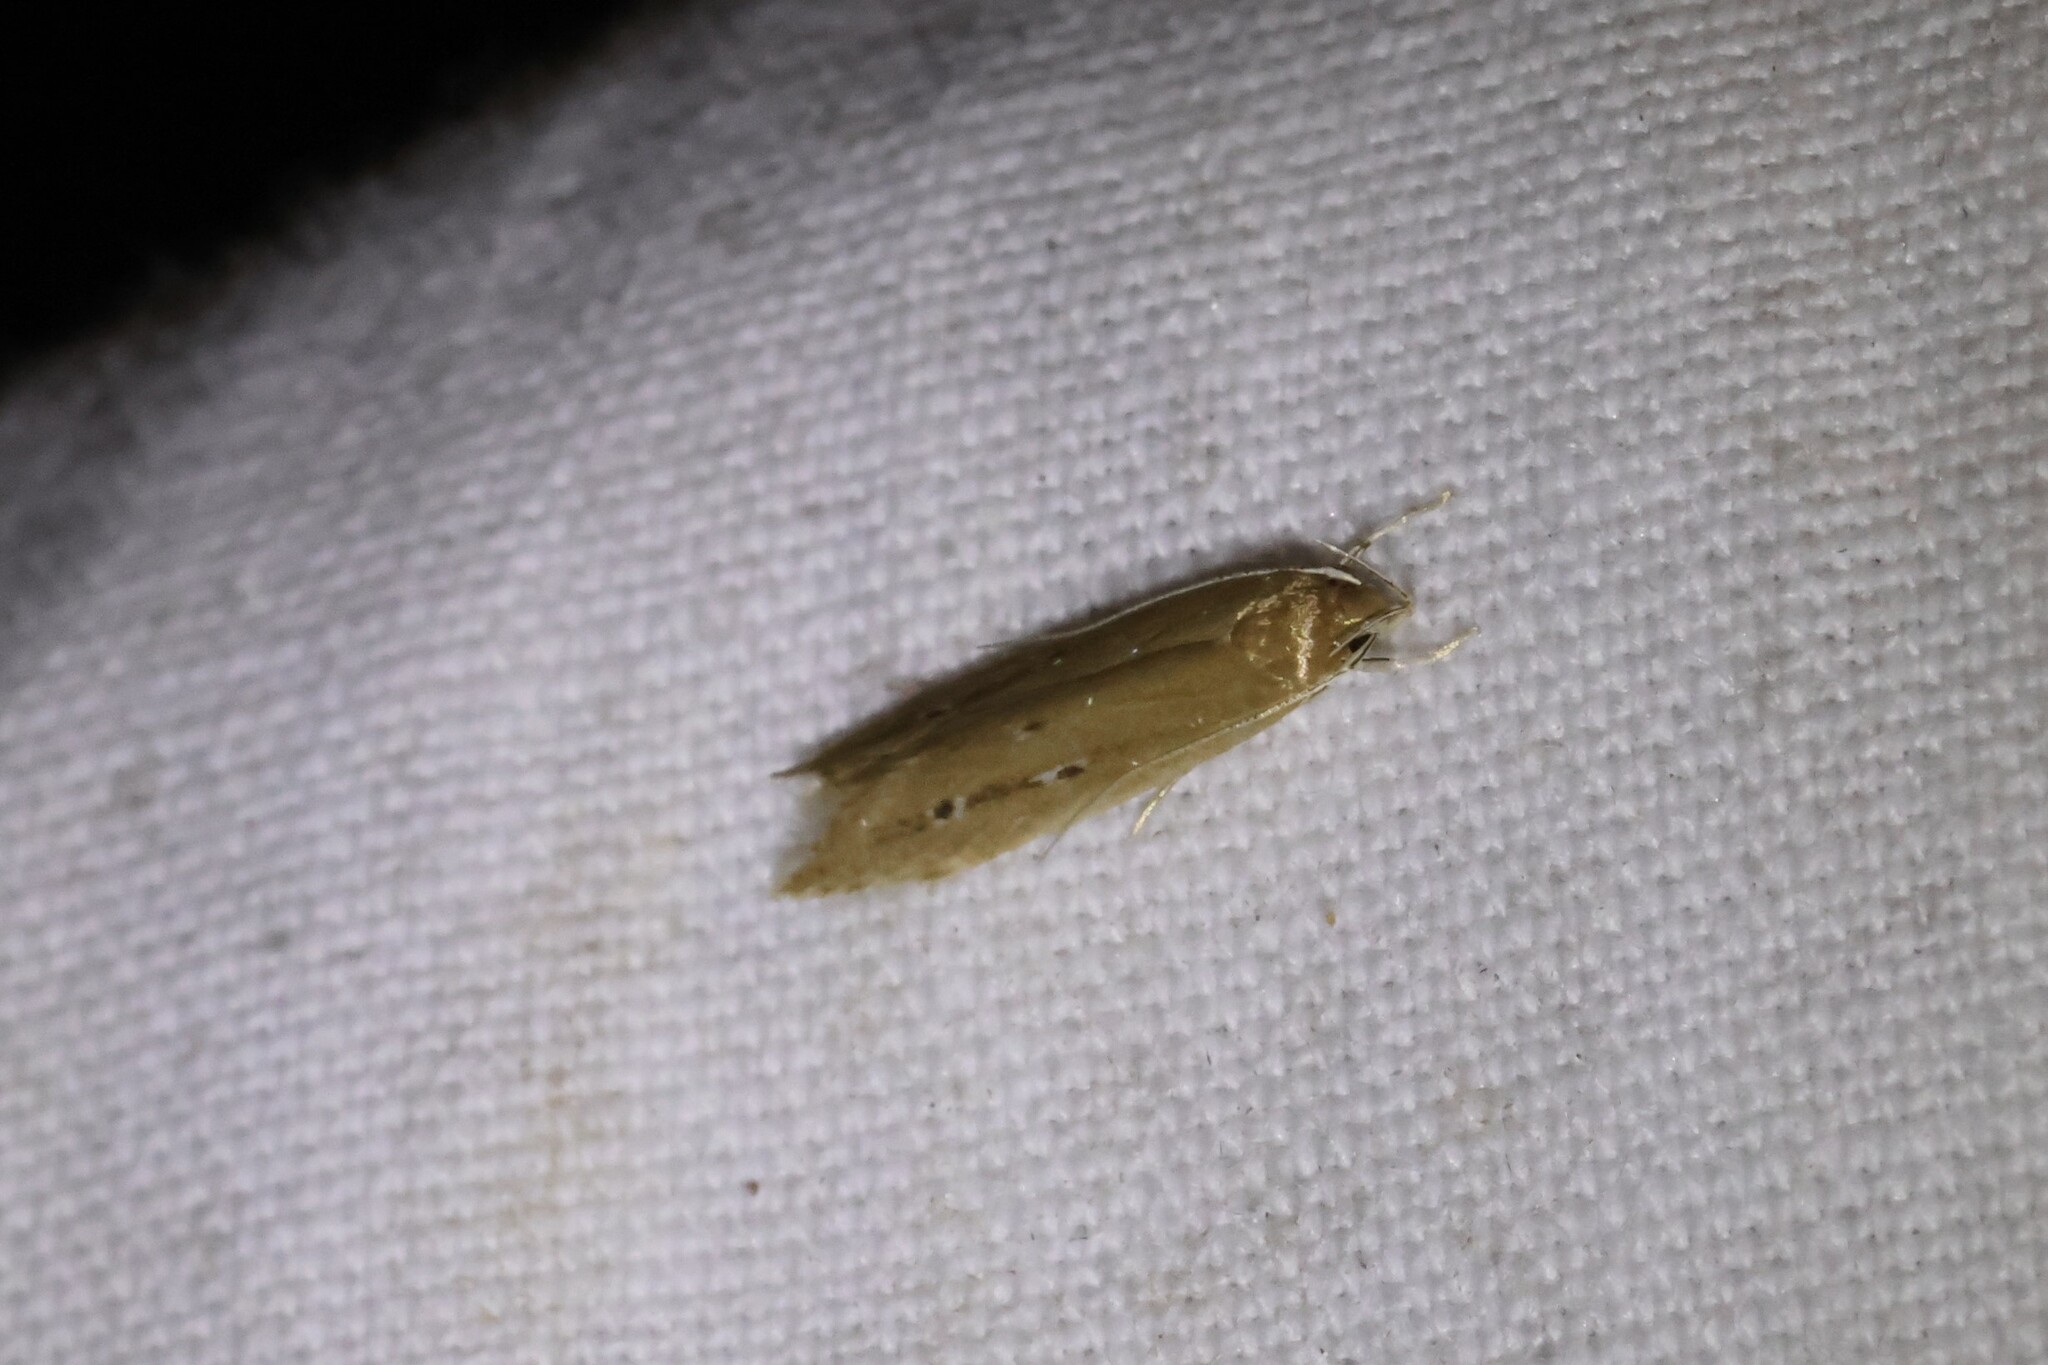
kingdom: Animalia
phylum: Arthropoda
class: Insecta
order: Lepidoptera
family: Cosmopterigidae
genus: Limnaecia
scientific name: Limnaecia phragmitella
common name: Bulrush cosmet
